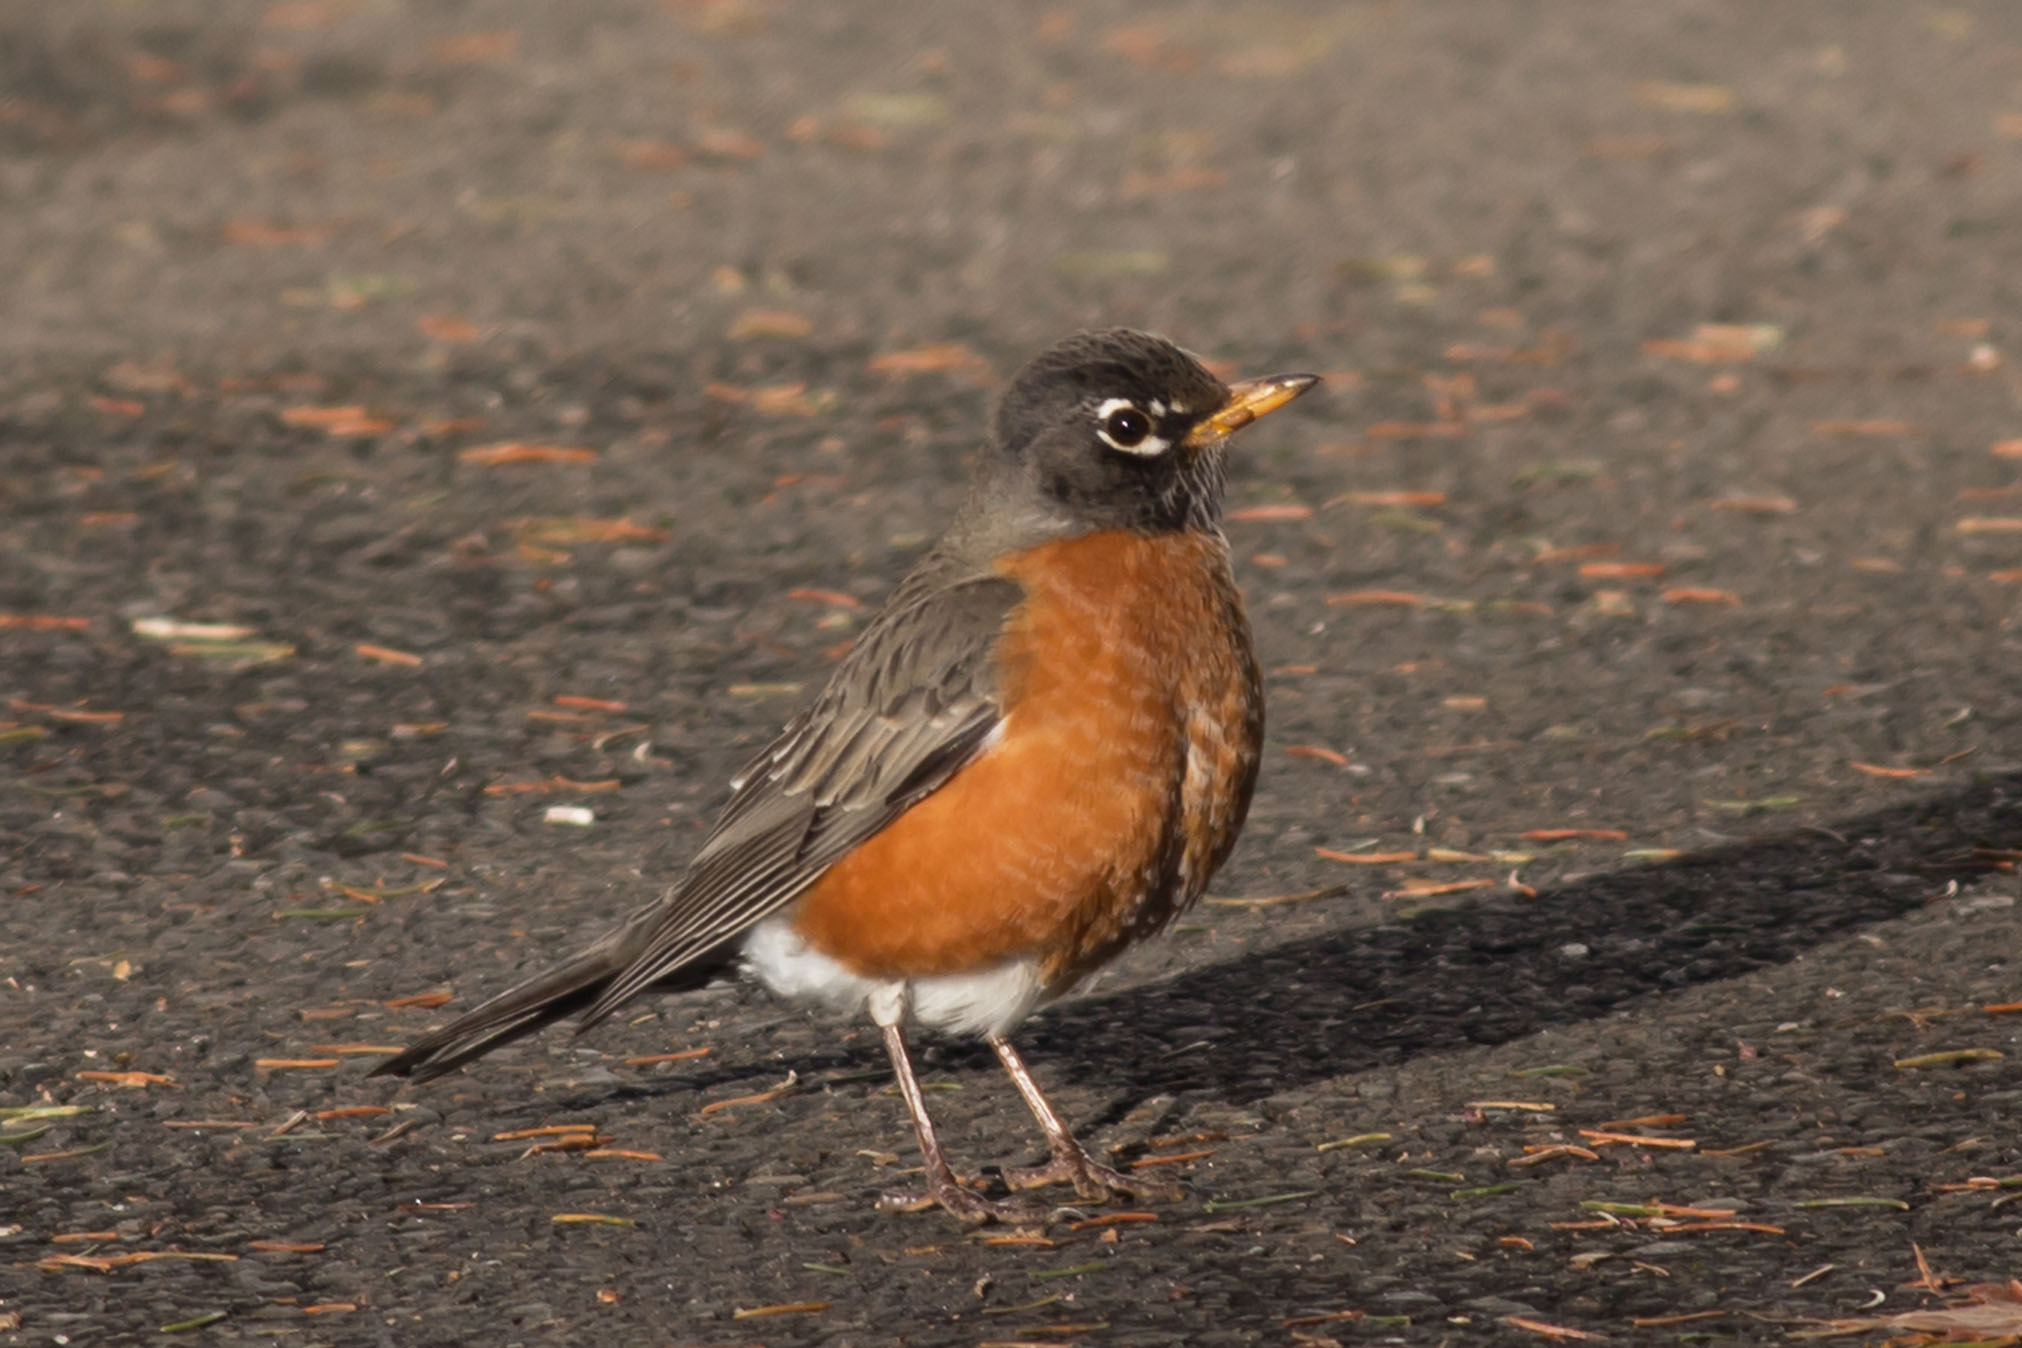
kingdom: Animalia
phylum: Chordata
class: Aves
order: Passeriformes
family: Turdidae
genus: Turdus
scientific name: Turdus migratorius
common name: American robin
